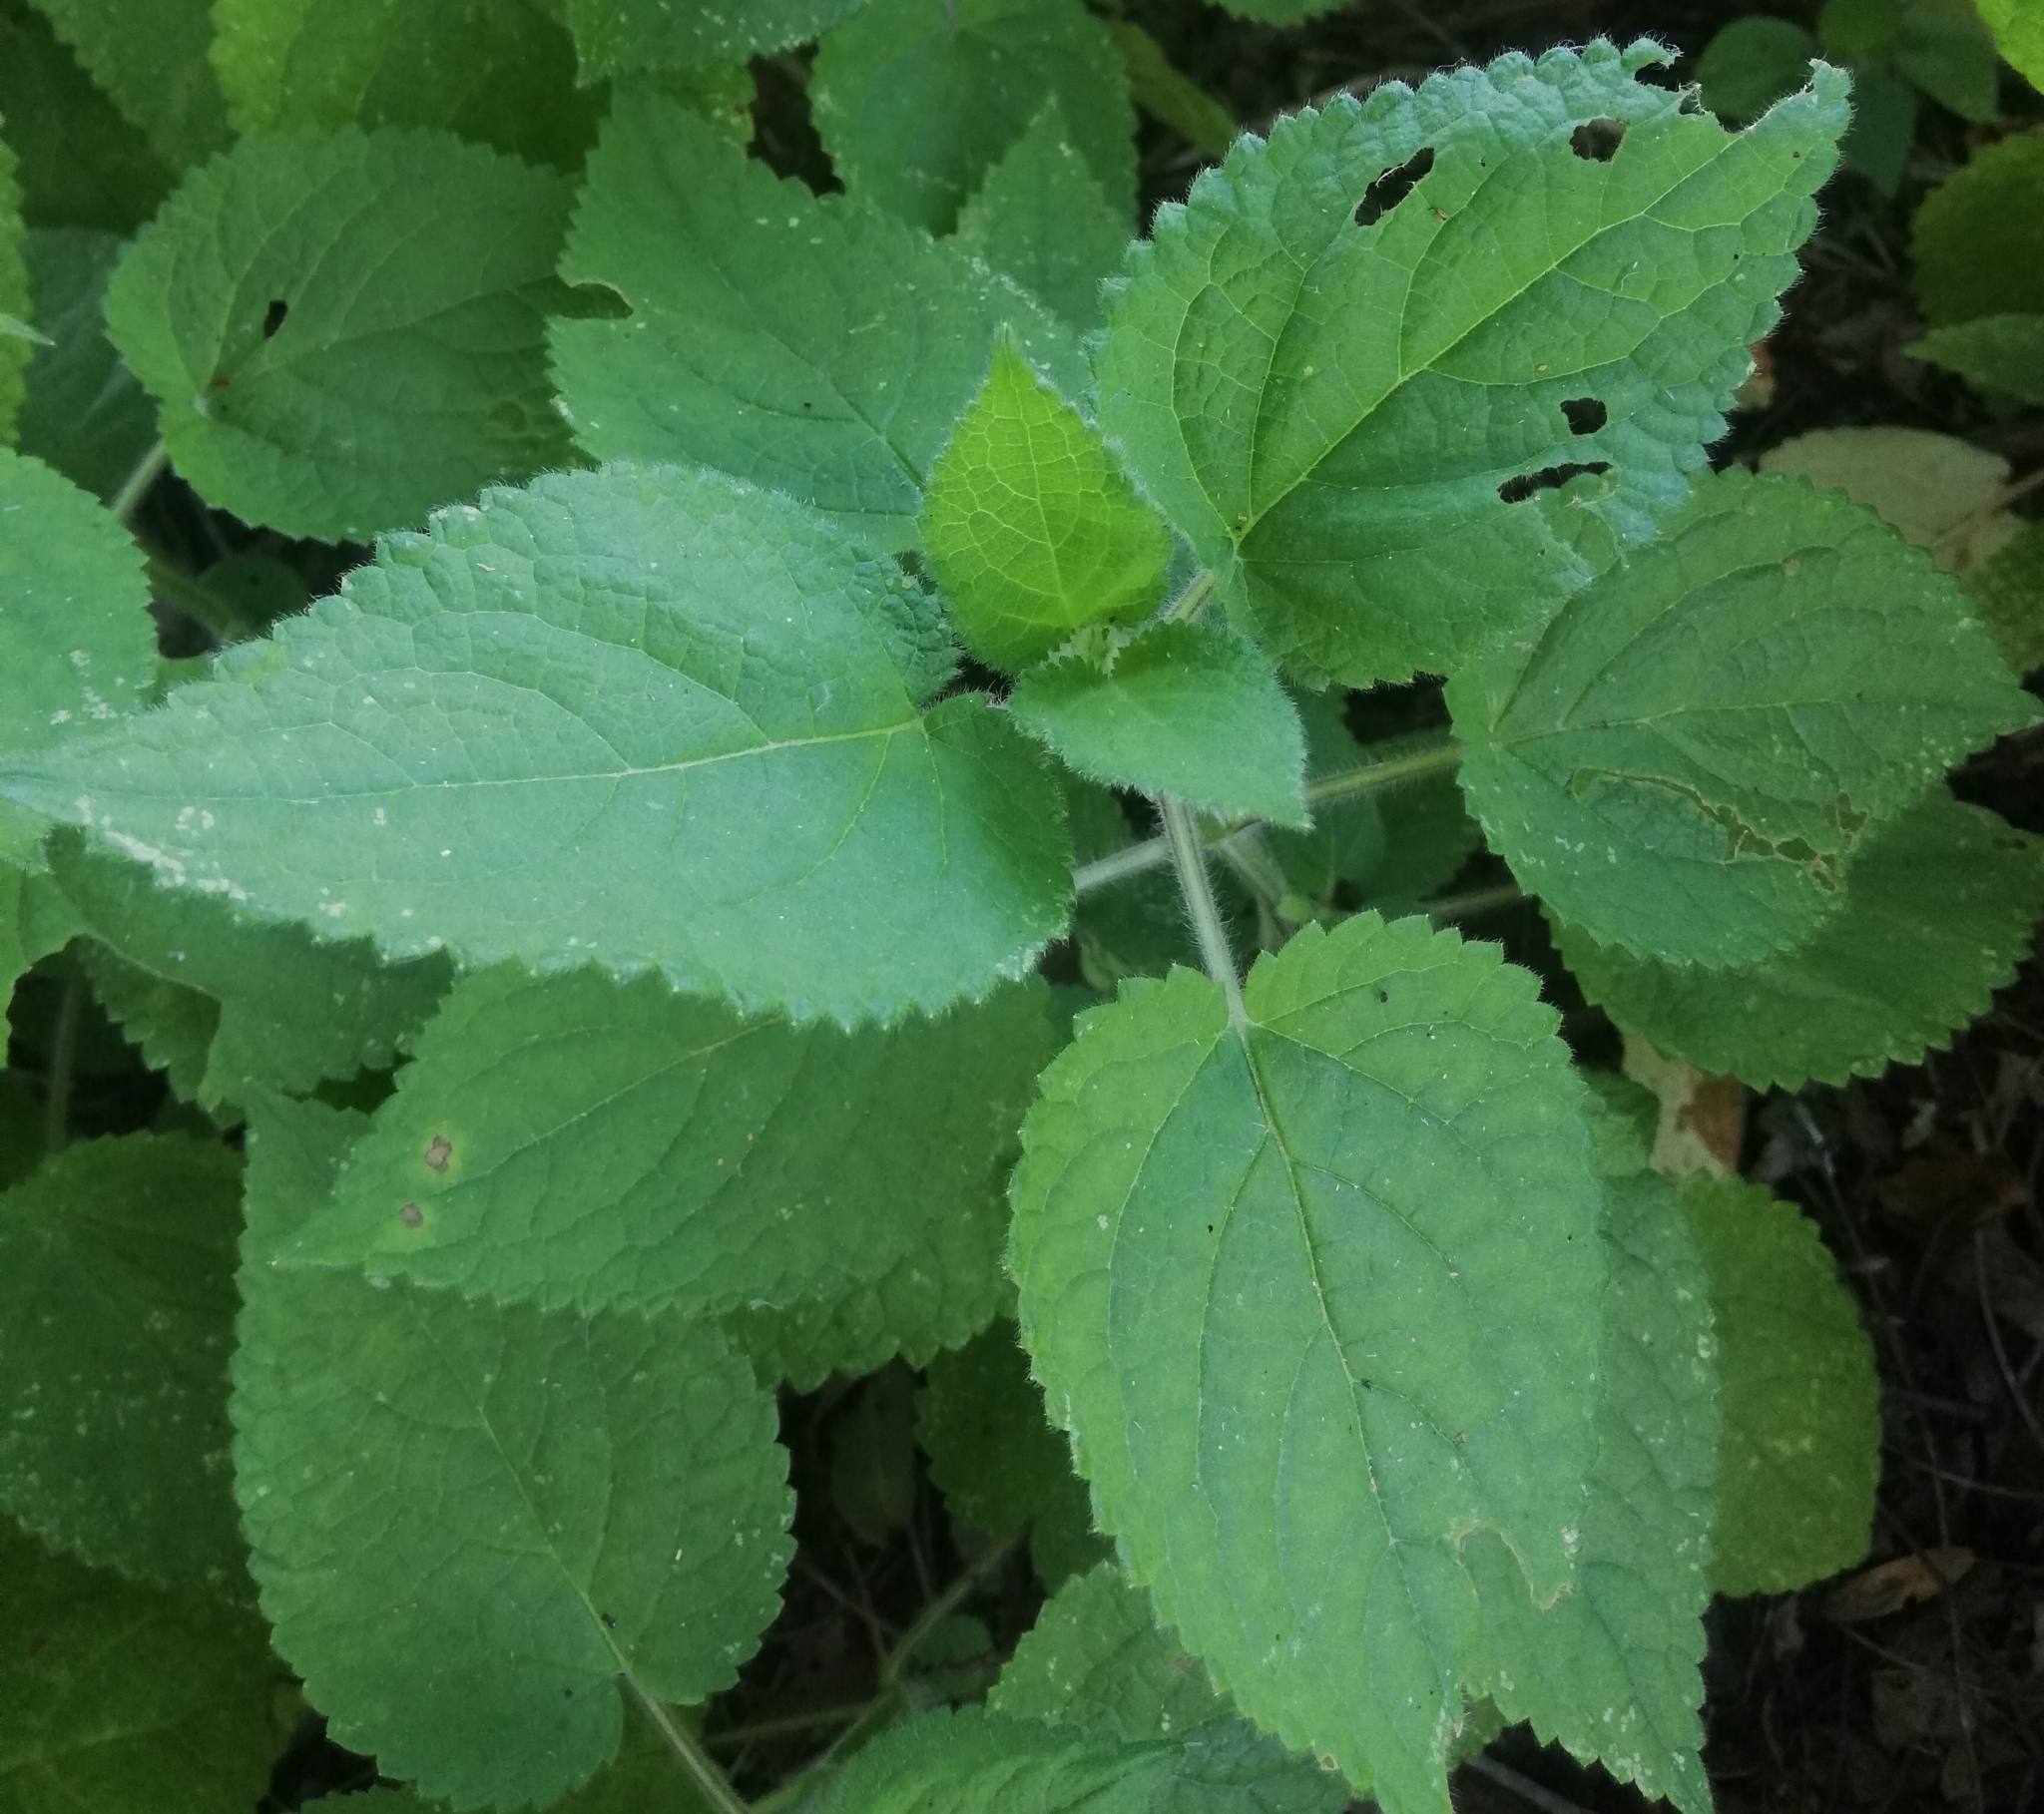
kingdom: Plantae
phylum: Tracheophyta
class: Magnoliopsida
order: Lamiales
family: Lamiaceae
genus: Stachys
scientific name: Stachys sylvatica
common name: Hedge woundwort
